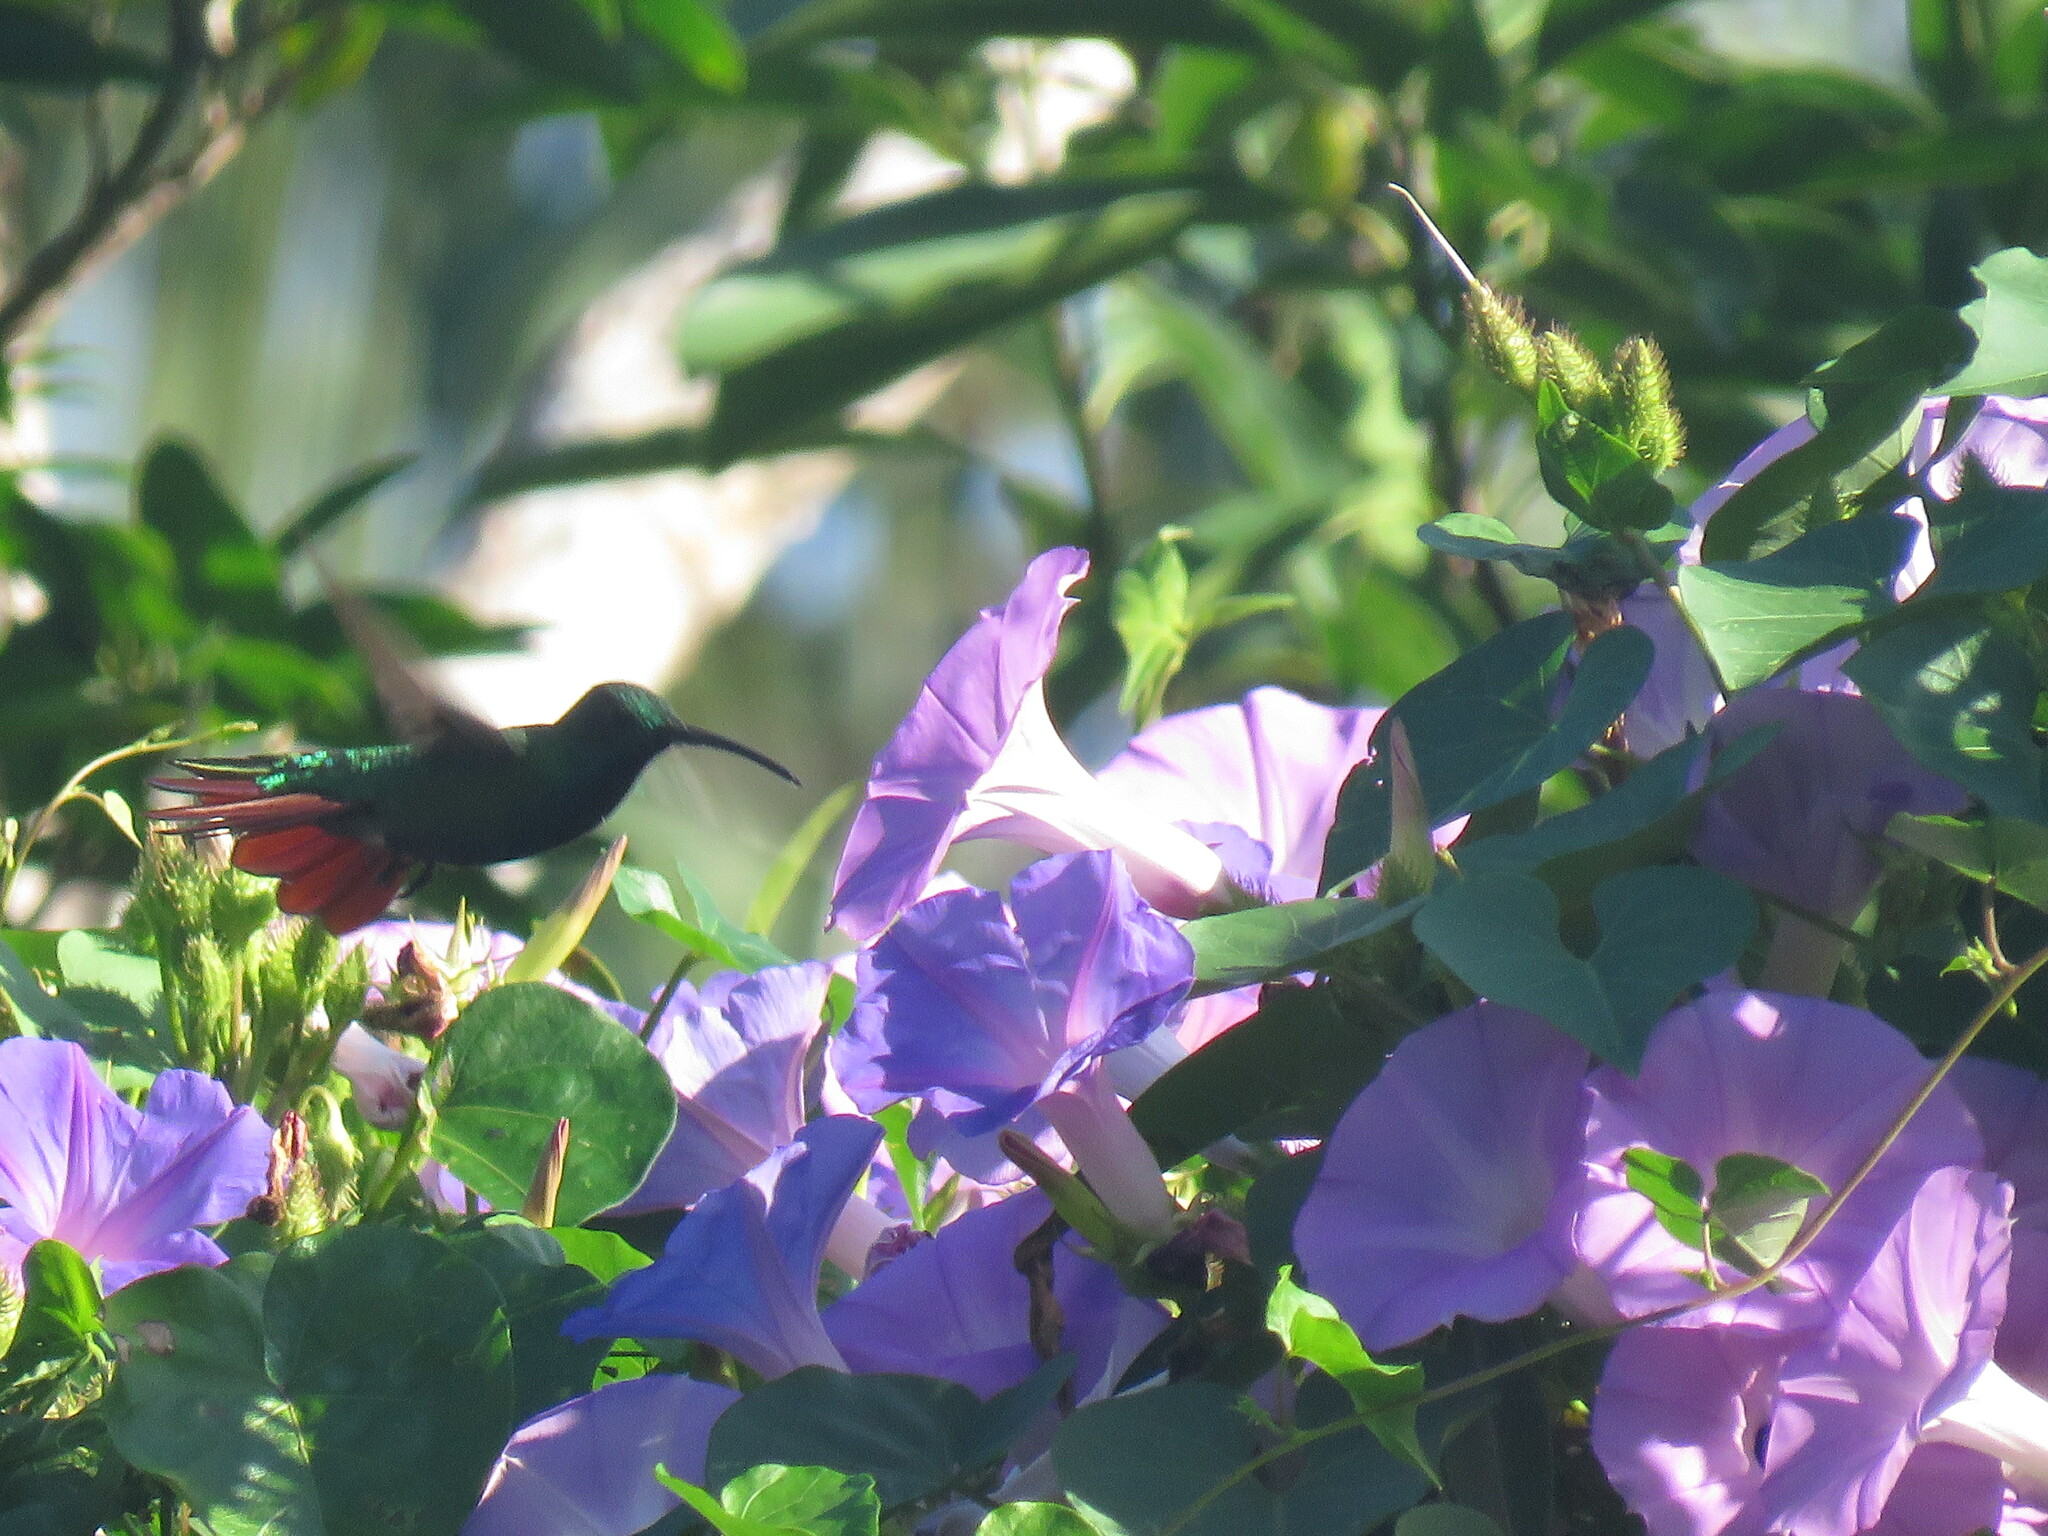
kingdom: Animalia
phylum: Chordata
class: Aves
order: Apodiformes
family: Trochilidae
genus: Anthracothorax
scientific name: Anthracothorax prevostii
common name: Green-breasted mango
